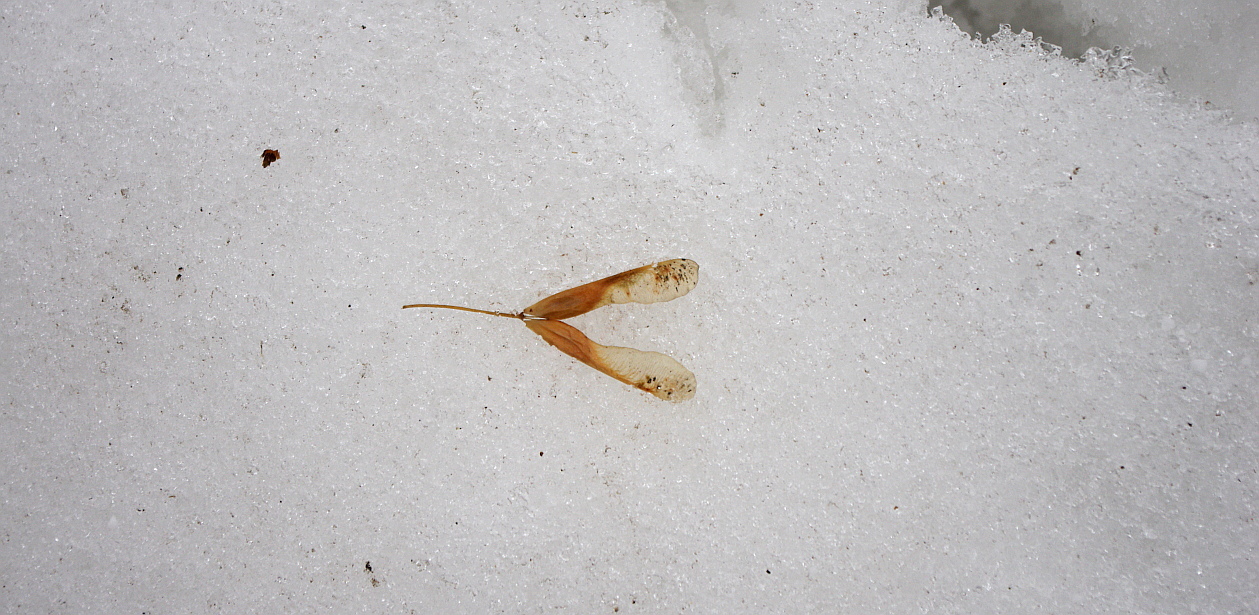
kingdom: Plantae
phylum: Tracheophyta
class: Magnoliopsida
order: Sapindales
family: Sapindaceae
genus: Acer
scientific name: Acer negundo
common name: Ashleaf maple
